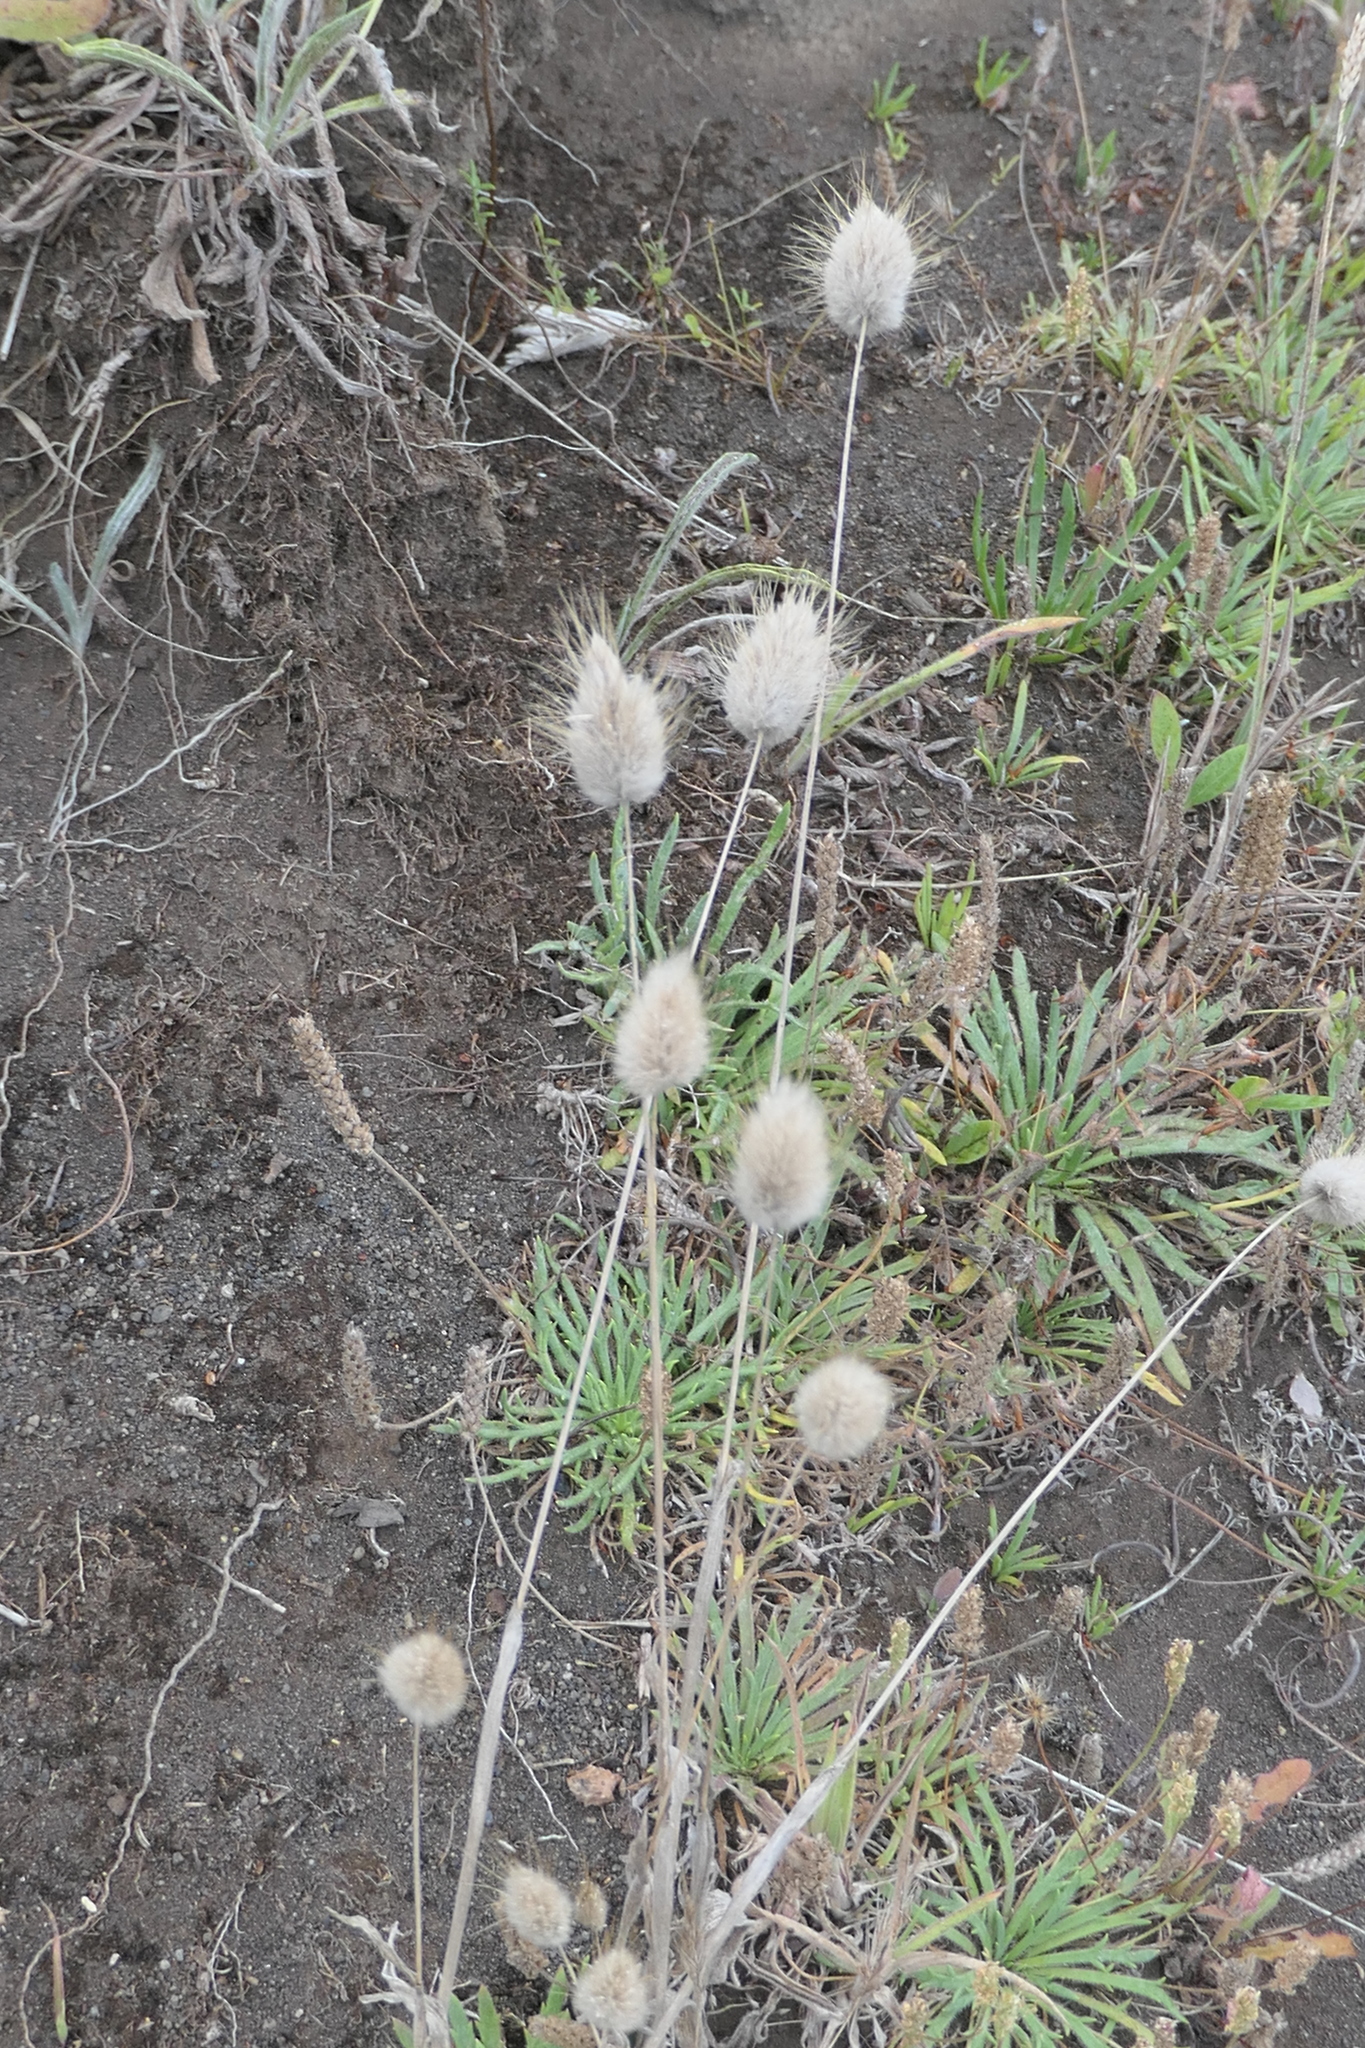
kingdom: Plantae
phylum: Tracheophyta
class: Liliopsida
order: Poales
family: Poaceae
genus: Lagurus
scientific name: Lagurus ovatus
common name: Hare's-tail
